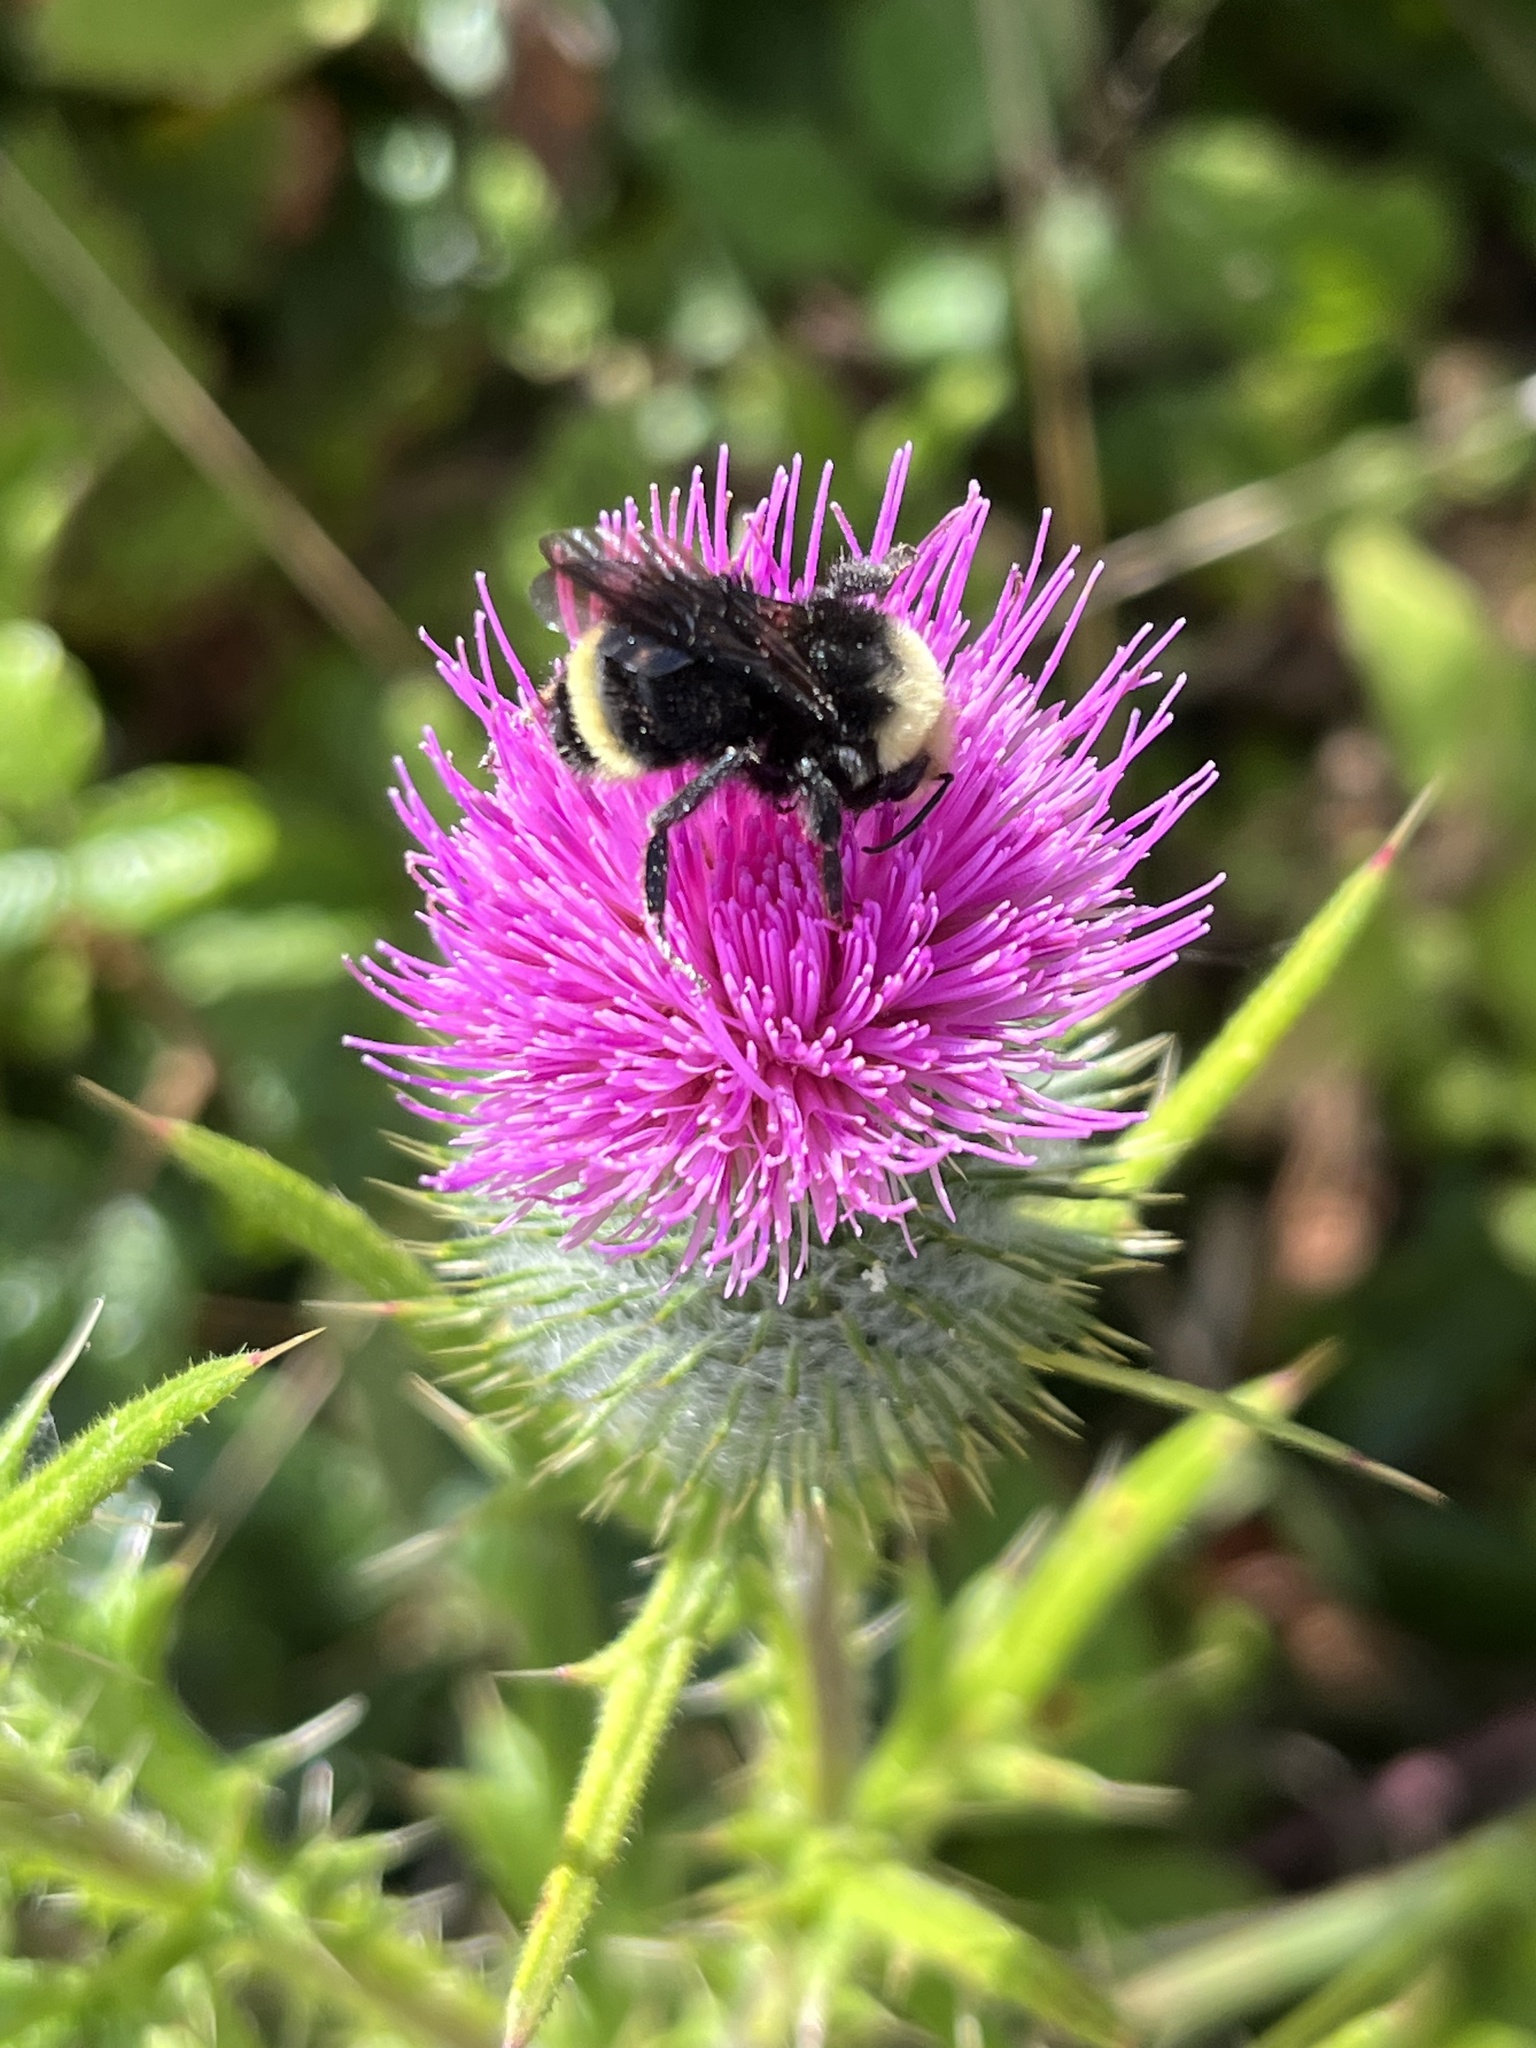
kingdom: Animalia
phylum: Arthropoda
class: Insecta
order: Hymenoptera
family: Apidae
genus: Bombus
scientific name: Bombus vosnesenskii
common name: Vosnesensky bumble bee
